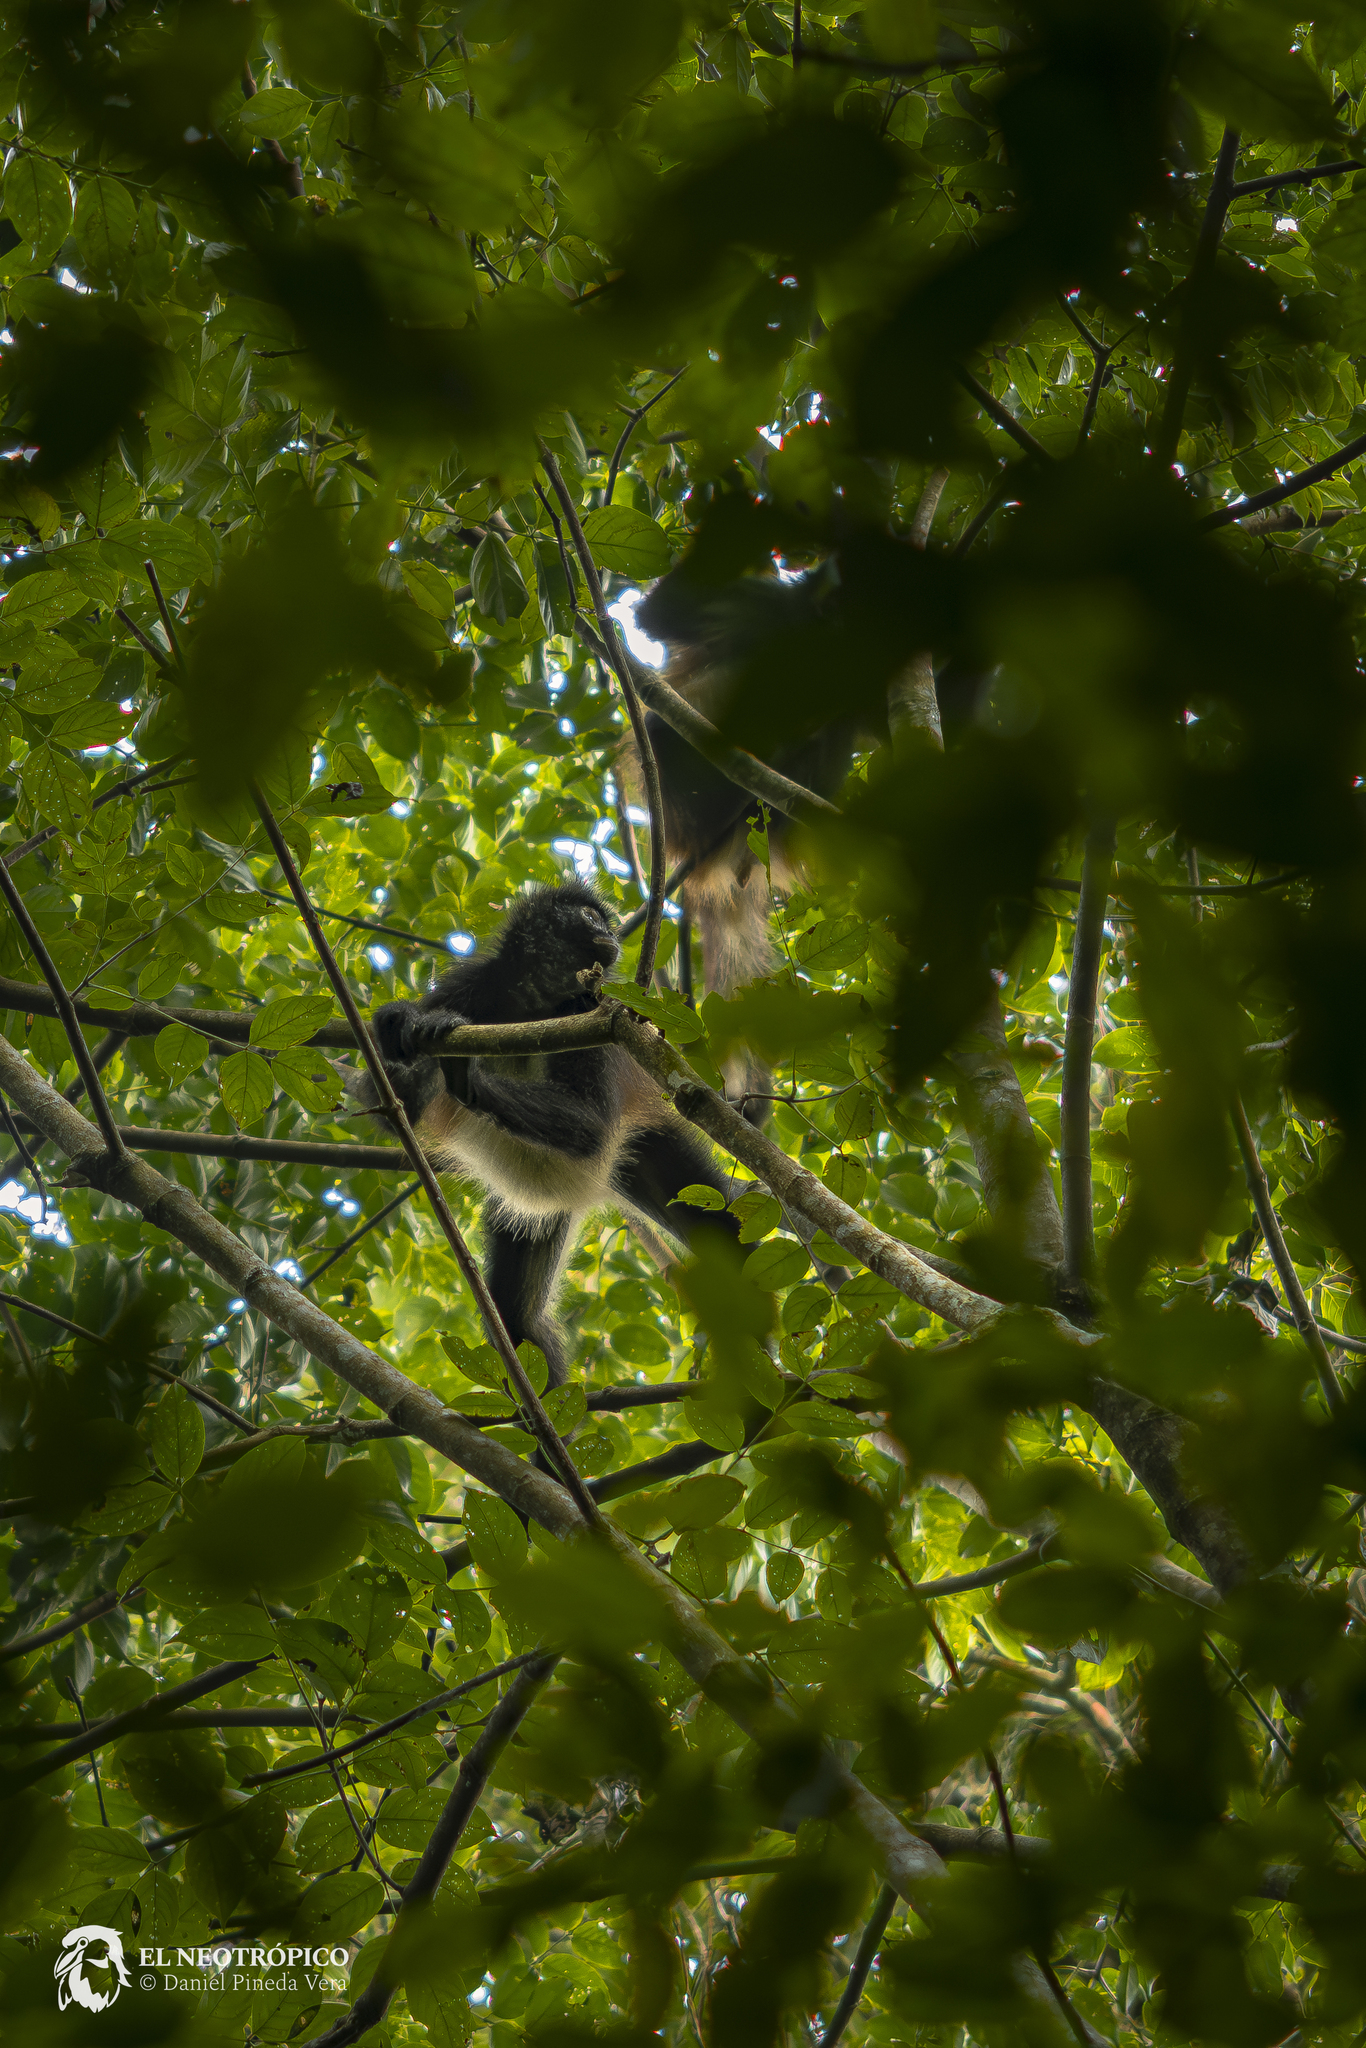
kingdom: Animalia
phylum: Chordata
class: Mammalia
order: Primates
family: Atelidae
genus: Ateles
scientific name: Ateles geoffroyi
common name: Black-handed spider monkey
